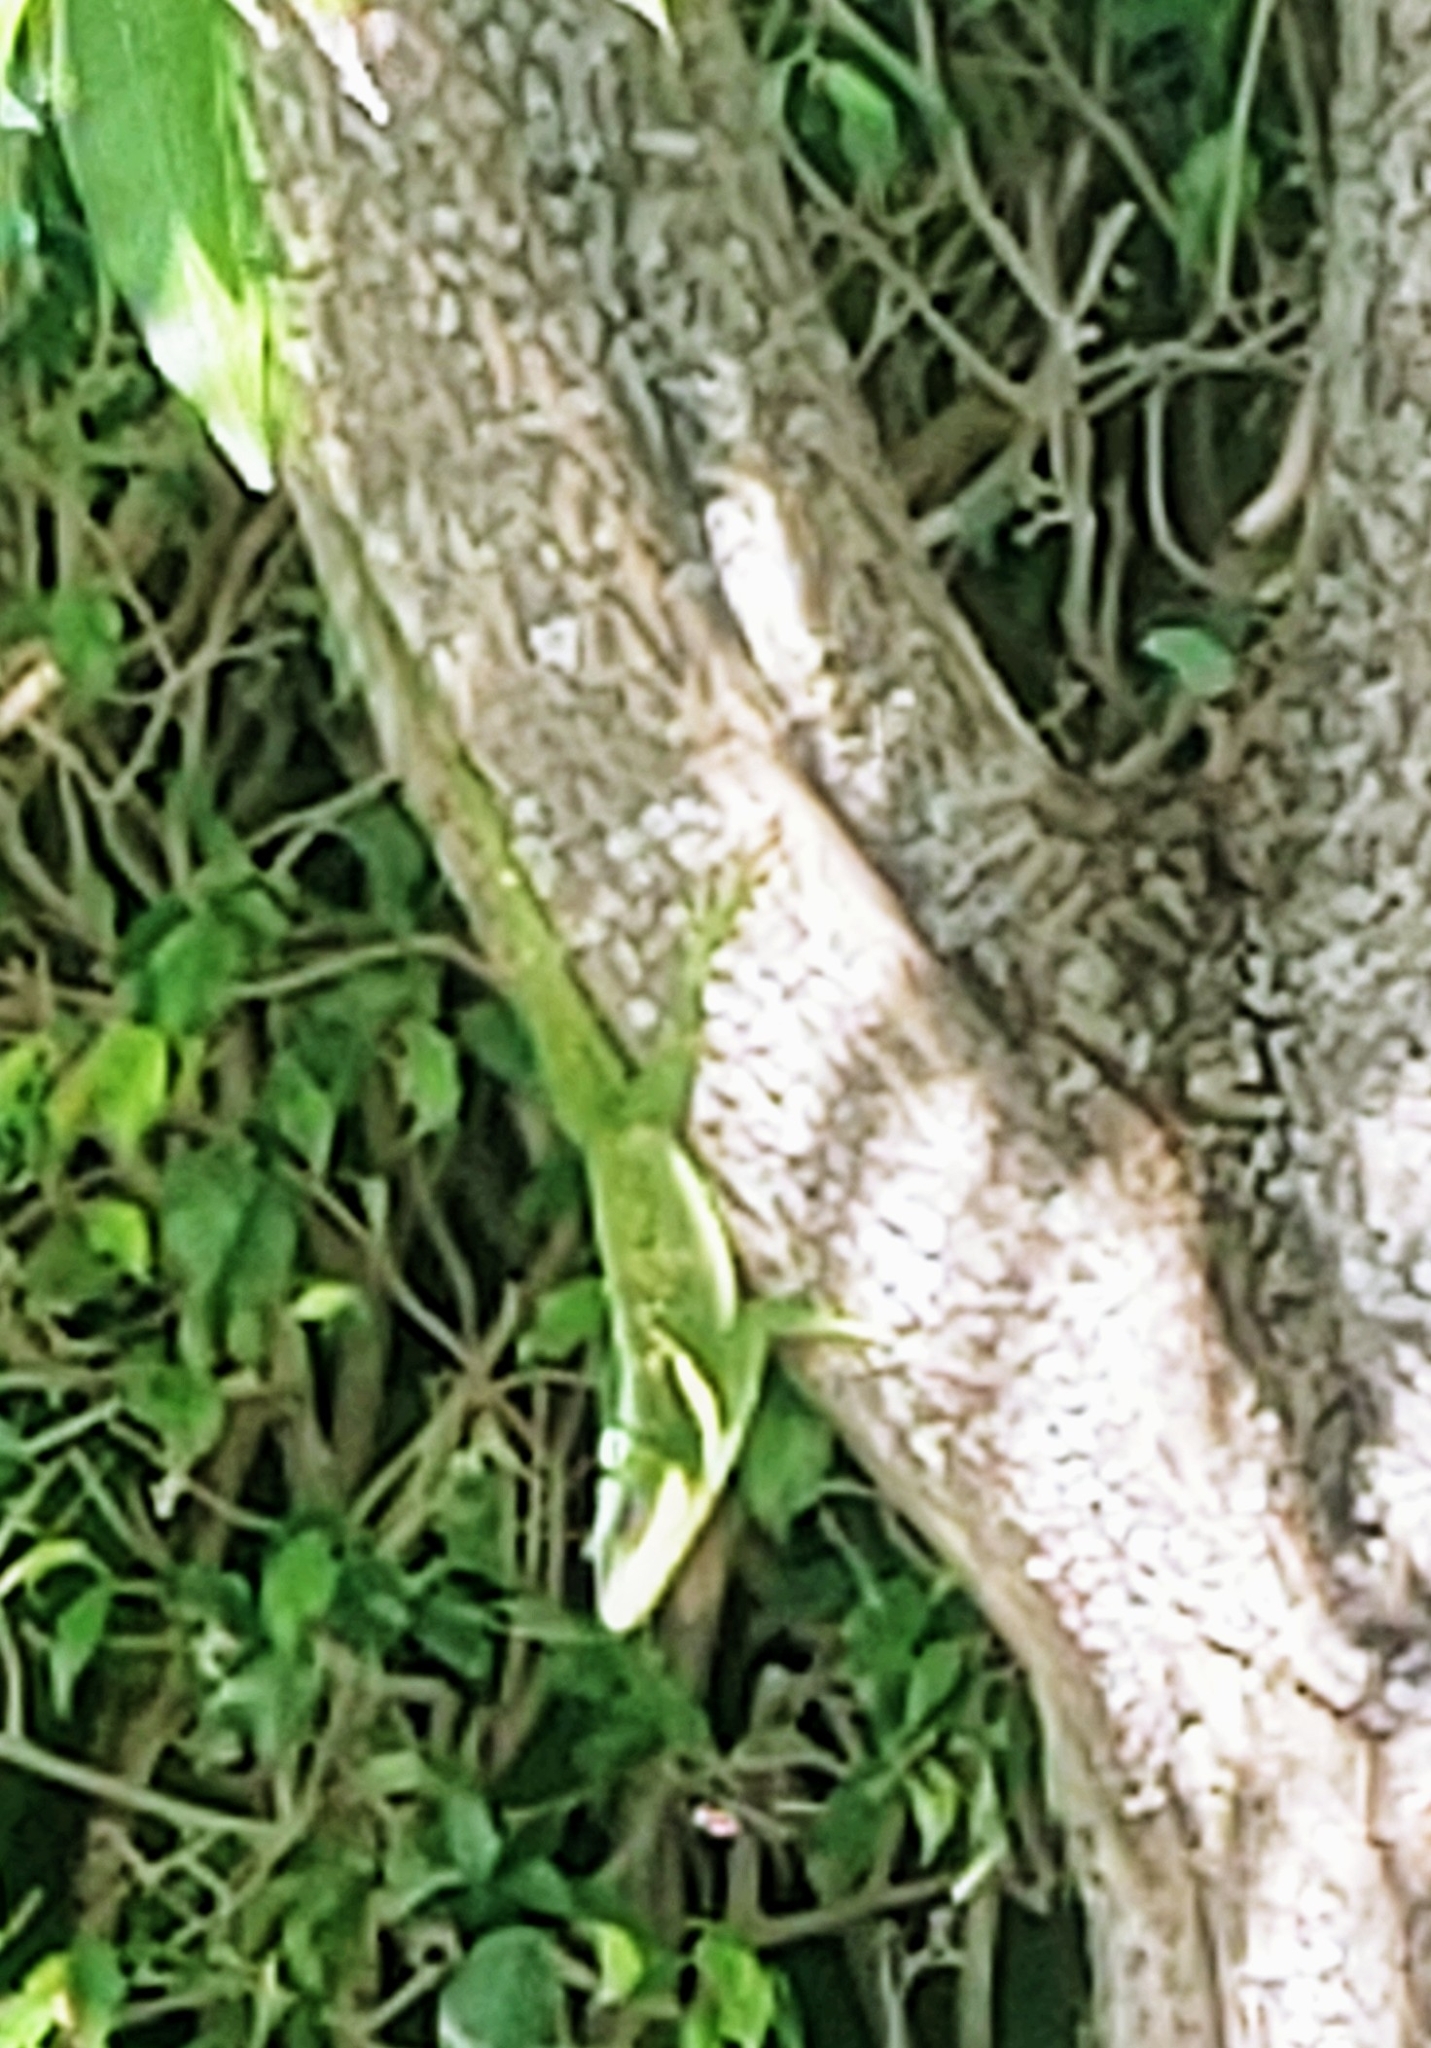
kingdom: Animalia
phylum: Chordata
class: Squamata
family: Dactyloidae
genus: Anolis
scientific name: Anolis equestris
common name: Knight anole
